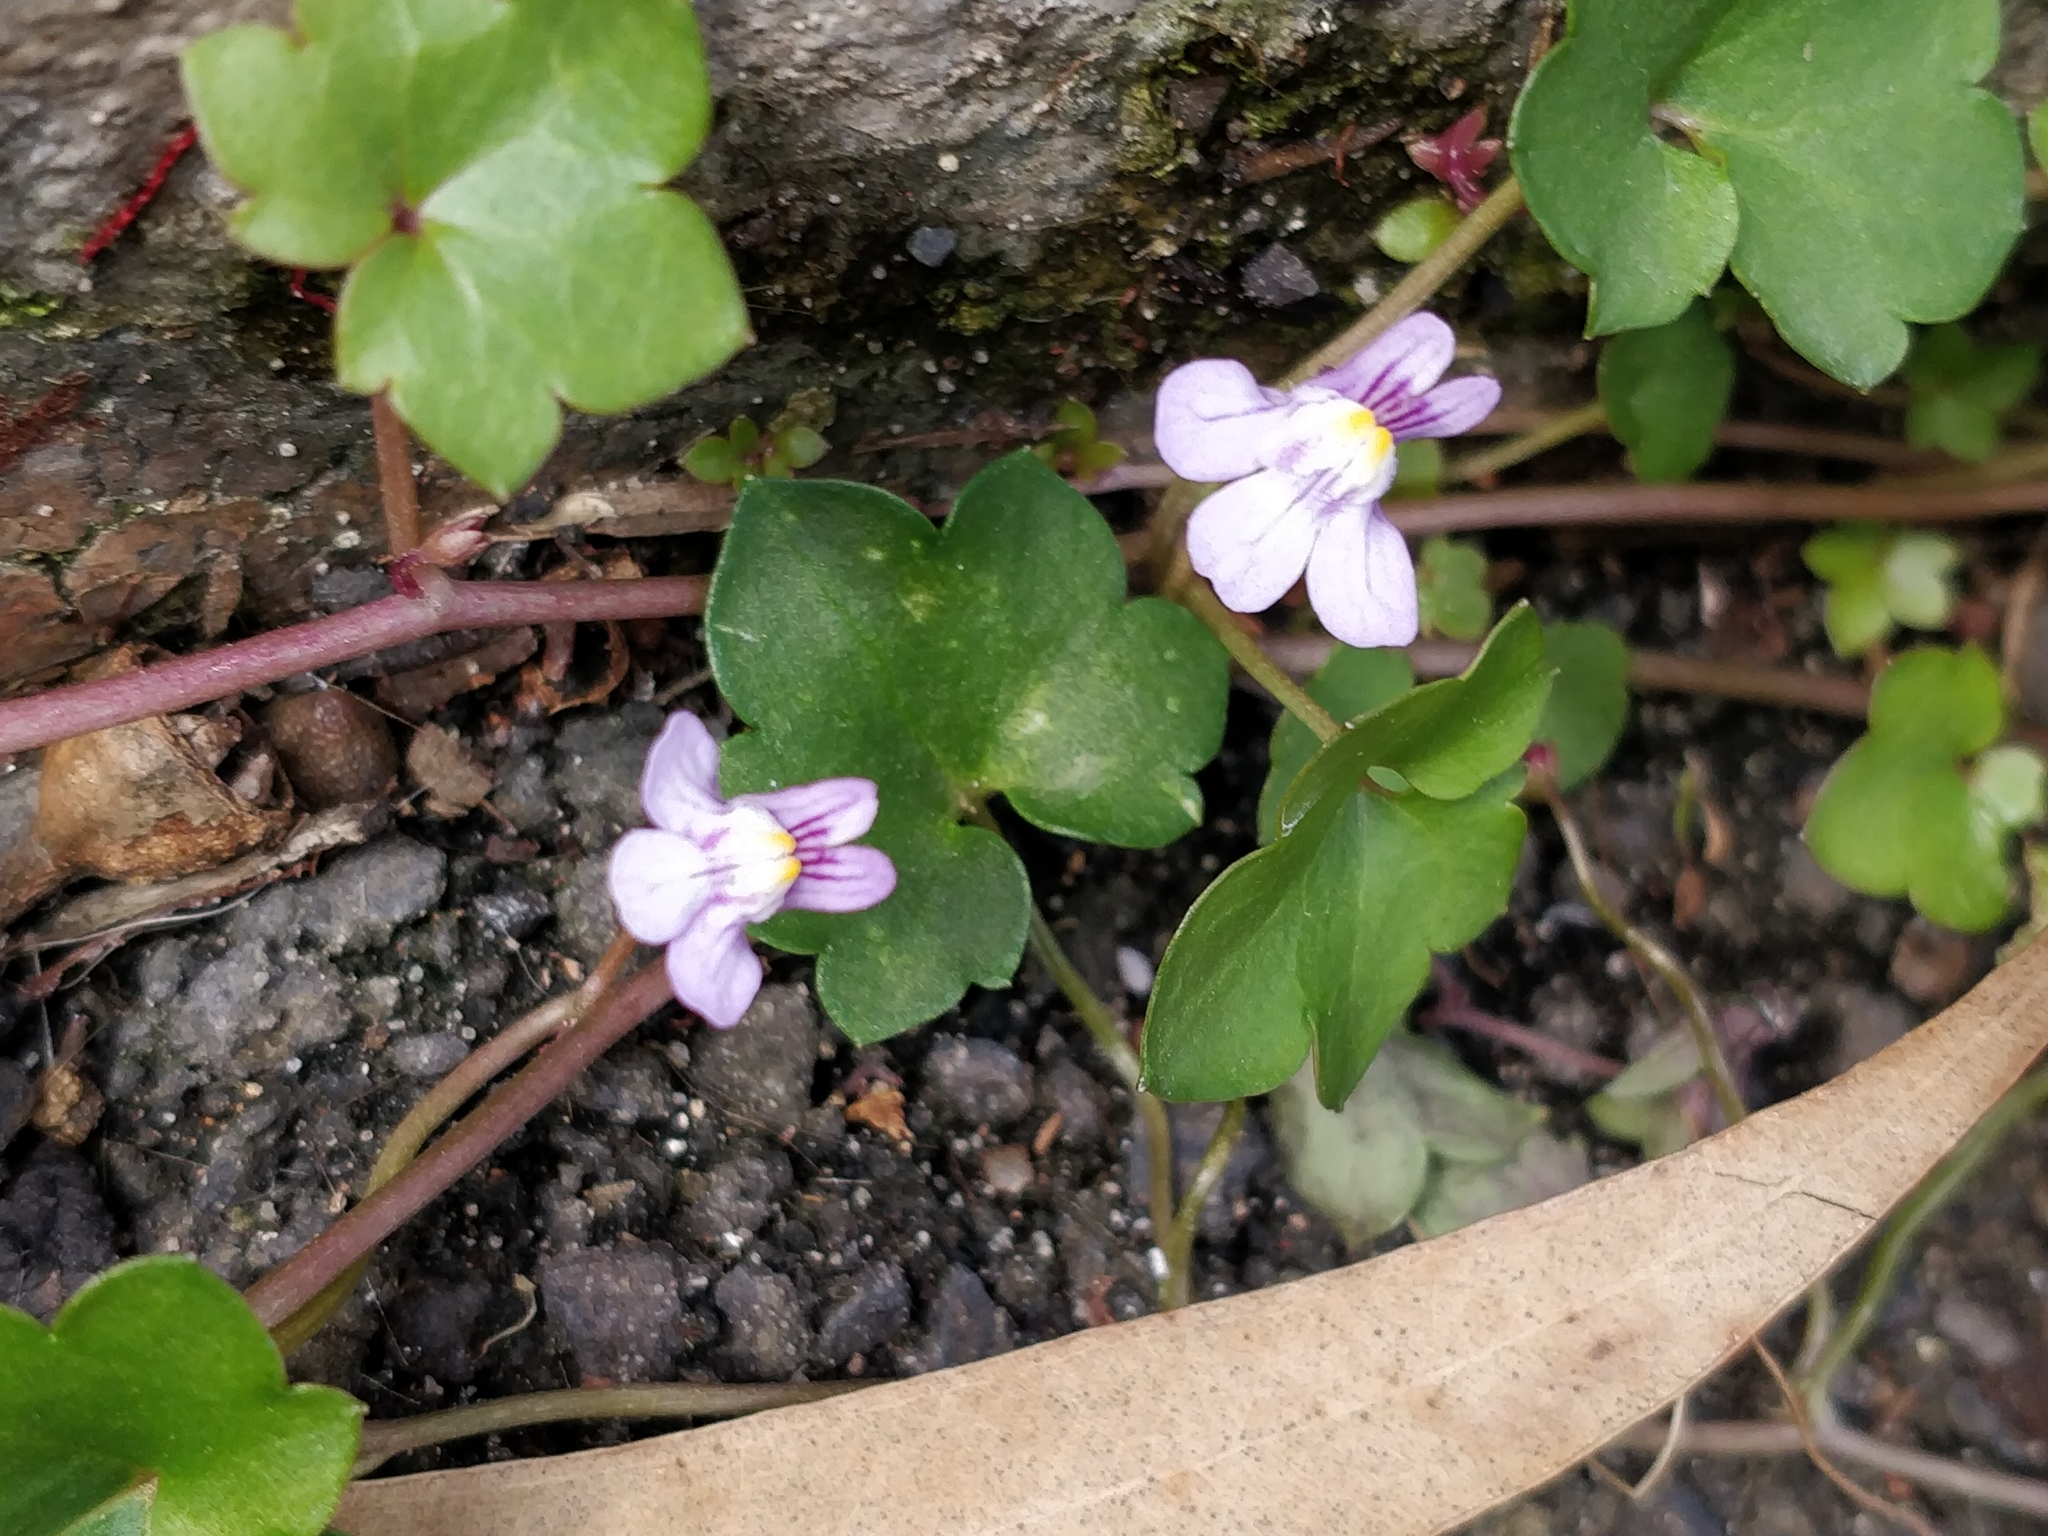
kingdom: Plantae
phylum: Tracheophyta
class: Magnoliopsida
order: Lamiales
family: Plantaginaceae
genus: Cymbalaria
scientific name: Cymbalaria muralis
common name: Ivy-leaved toadflax
